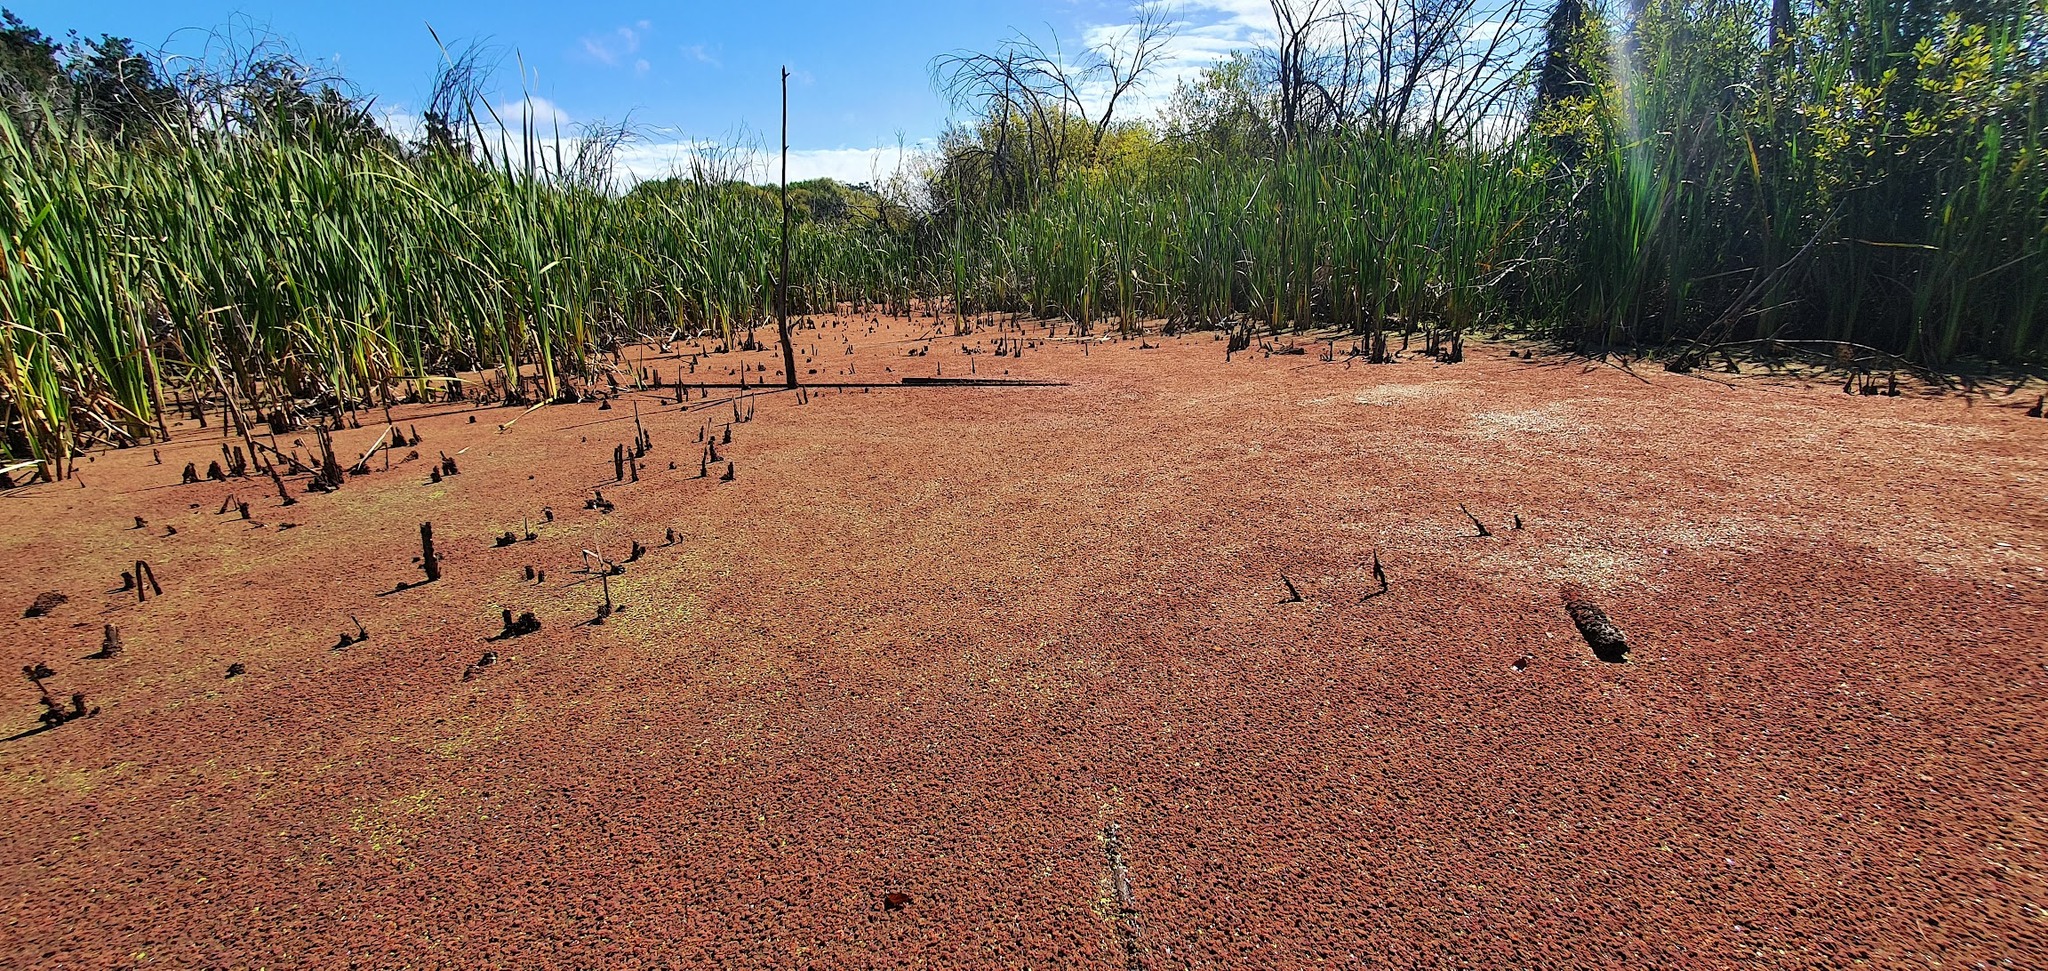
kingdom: Plantae
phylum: Tracheophyta
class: Polypodiopsida
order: Salviniales
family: Salviniaceae
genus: Azolla
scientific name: Azolla rubra
